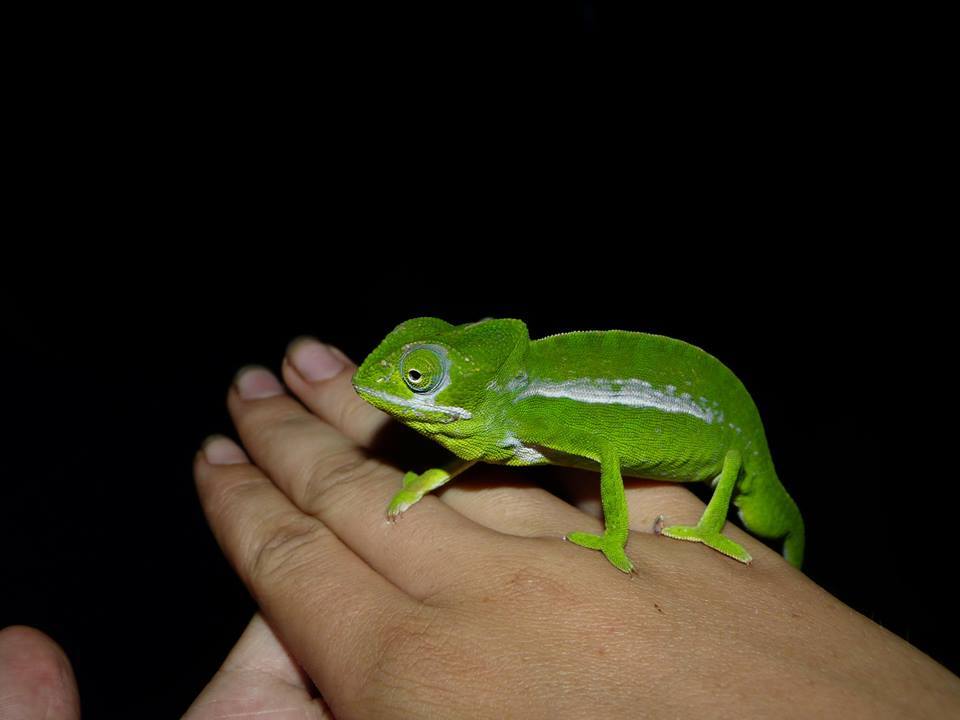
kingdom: Animalia
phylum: Chordata
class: Squamata
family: Chamaeleonidae
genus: Furcifer
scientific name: Furcifer viridis
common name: Green chameleon
